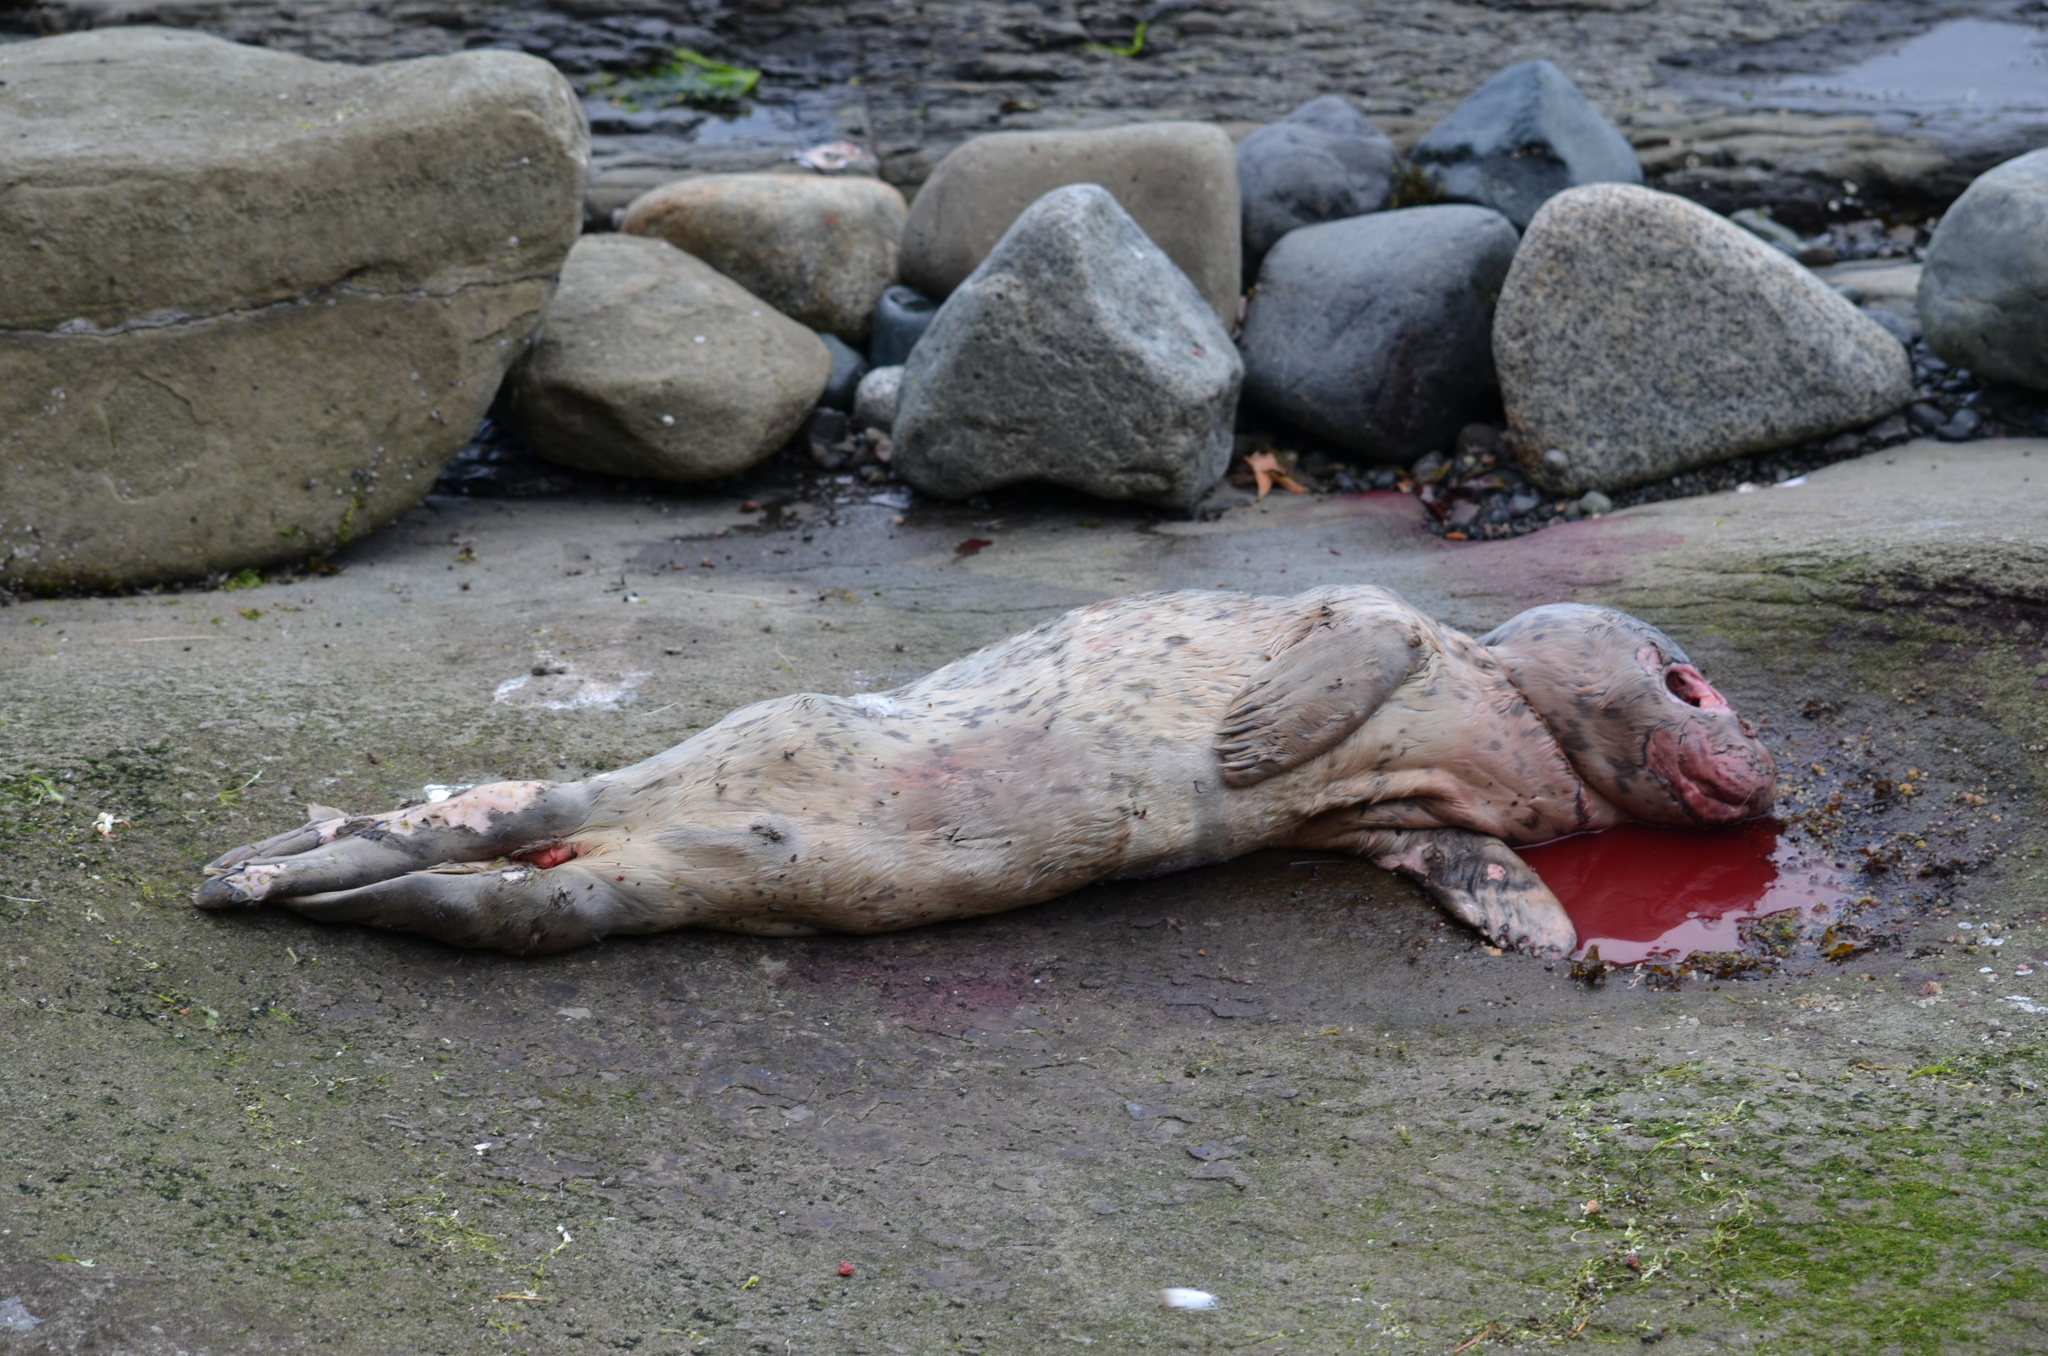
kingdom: Animalia
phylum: Chordata
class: Mammalia
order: Carnivora
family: Phocidae
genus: Phoca
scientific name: Phoca vitulina
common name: Harbor seal
